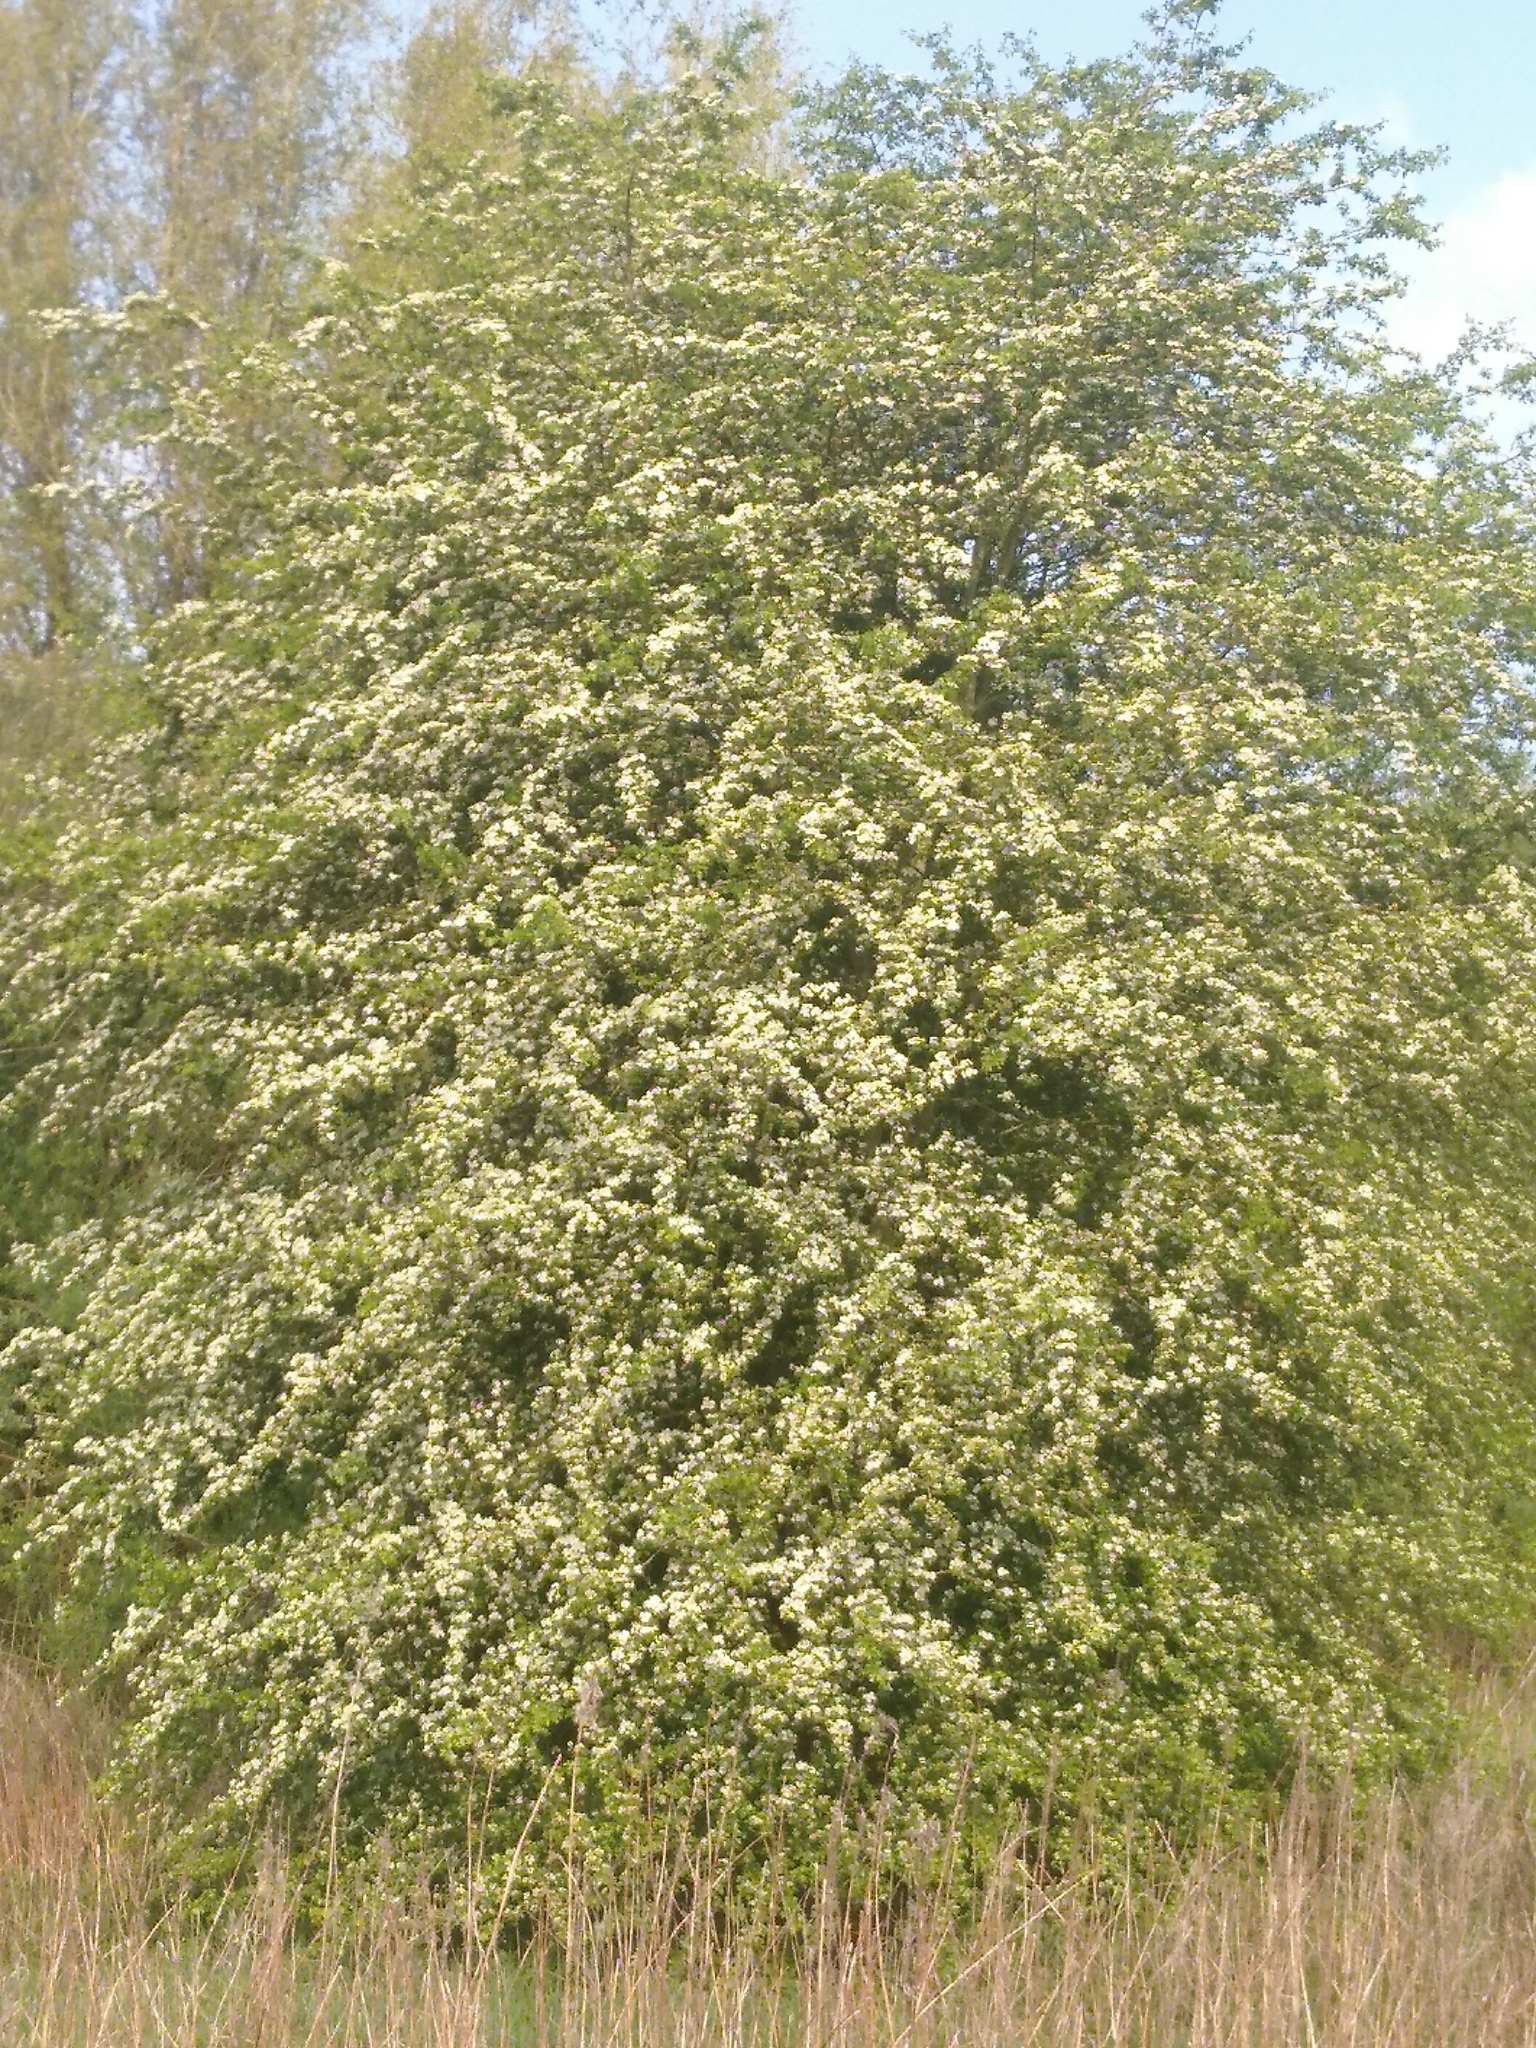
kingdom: Plantae
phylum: Tracheophyta
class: Magnoliopsida
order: Rosales
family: Rosaceae
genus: Crataegus
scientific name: Crataegus monogyna
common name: Hawthorn
